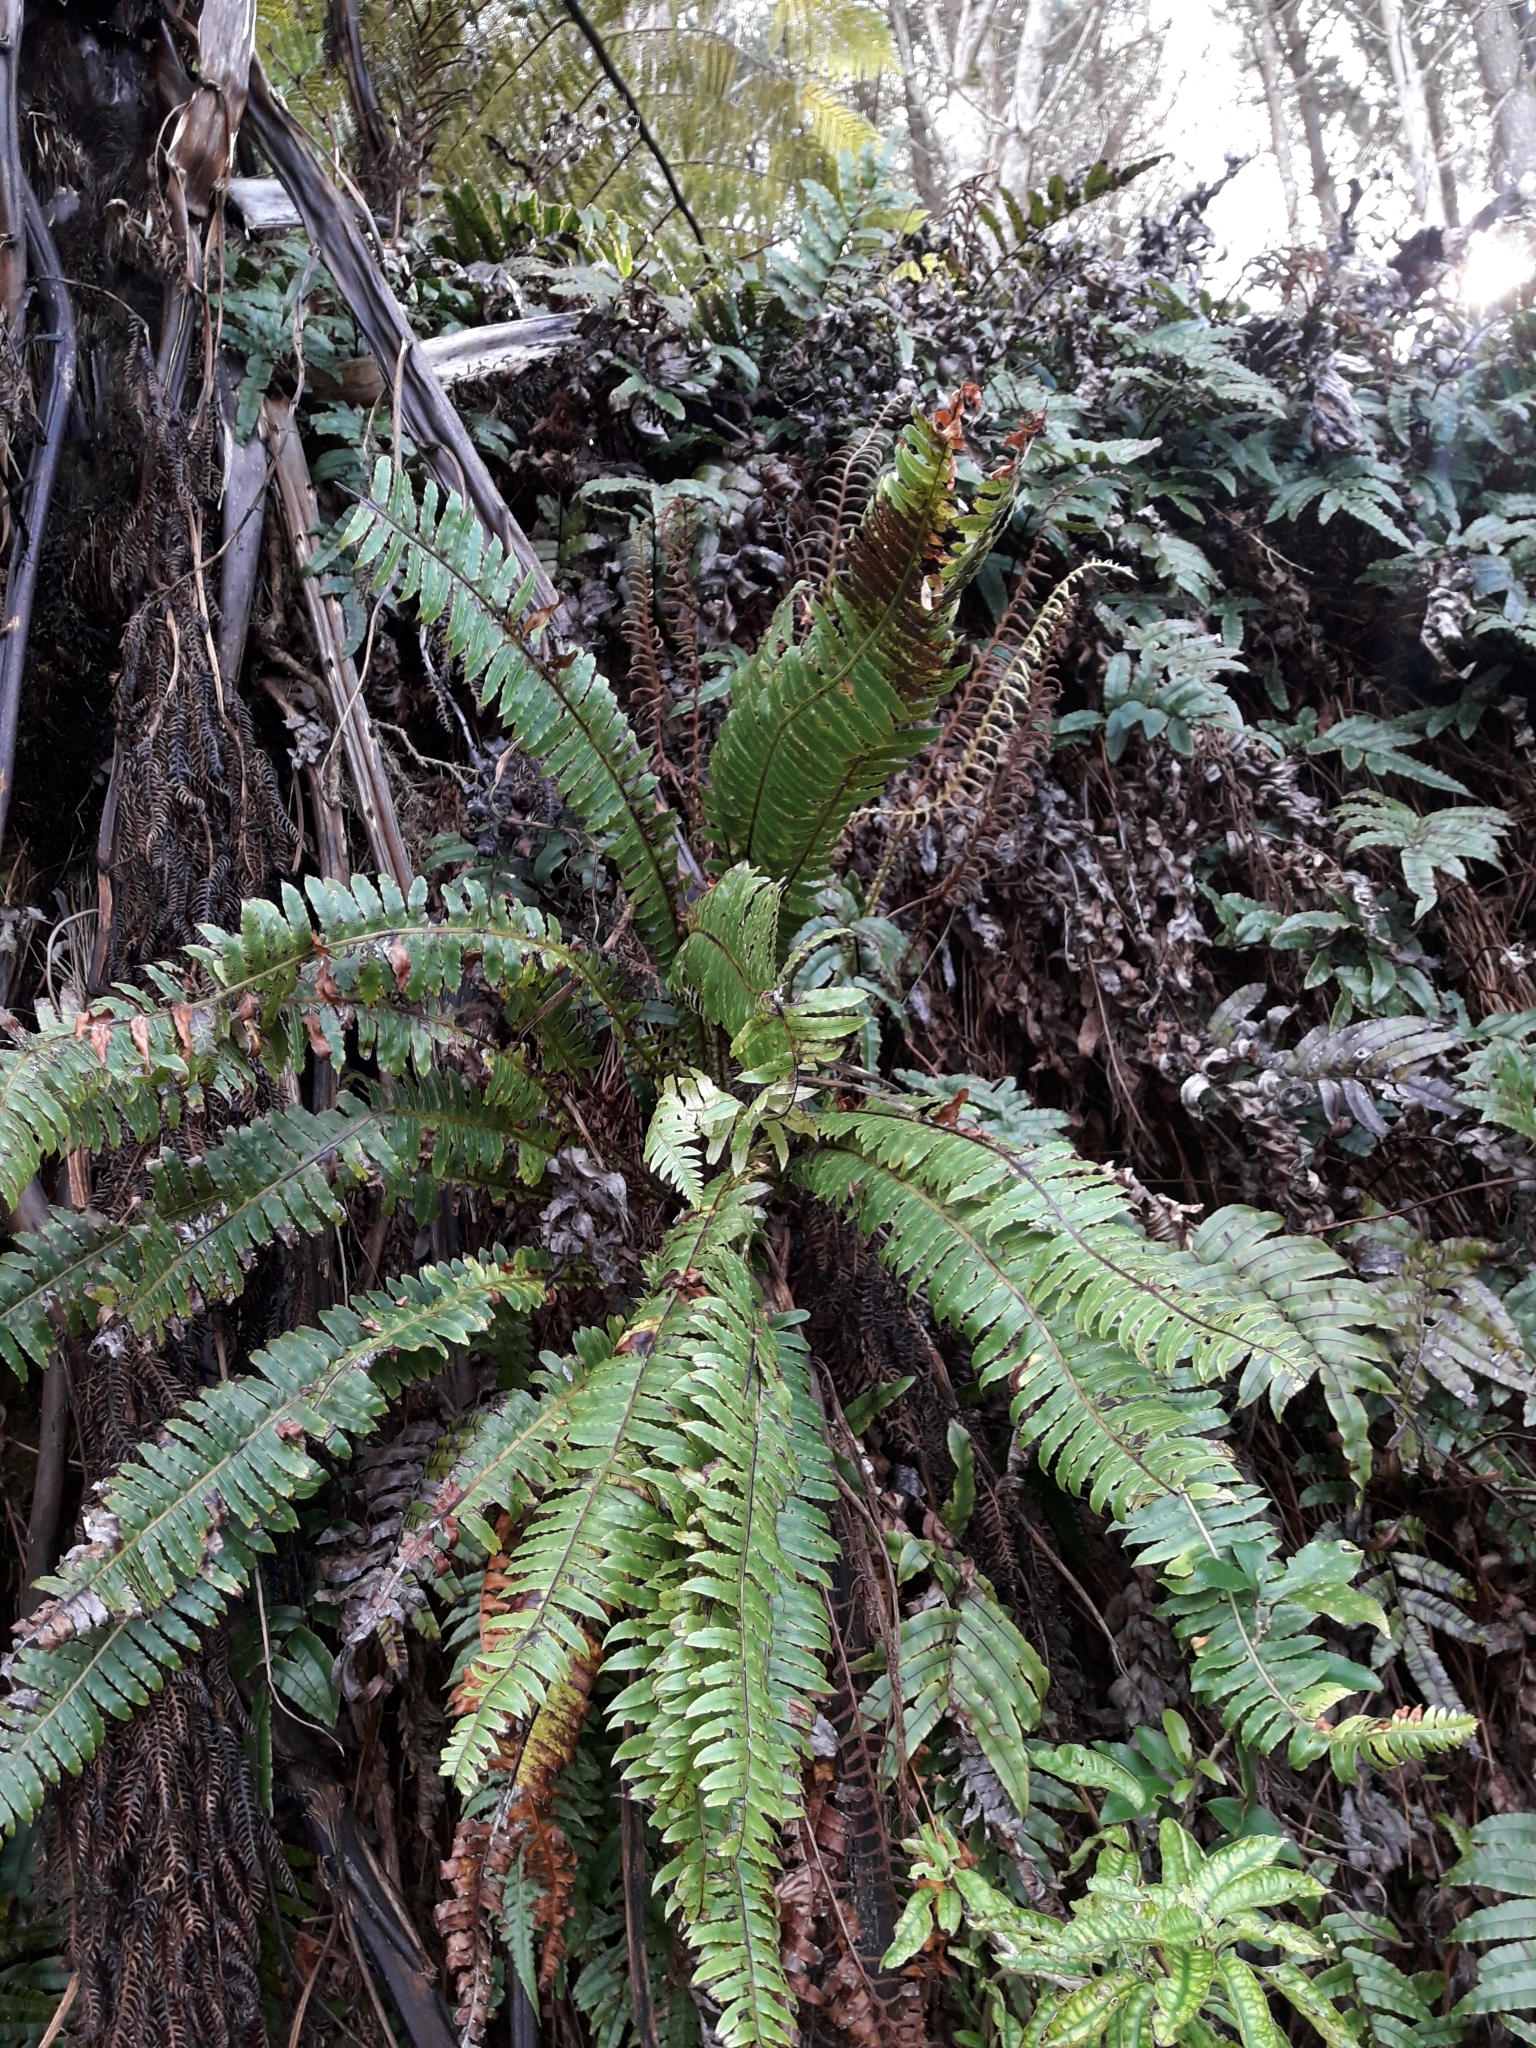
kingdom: Plantae
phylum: Tracheophyta
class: Polypodiopsida
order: Polypodiales
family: Blechnaceae
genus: Lomaria
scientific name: Lomaria discolor
